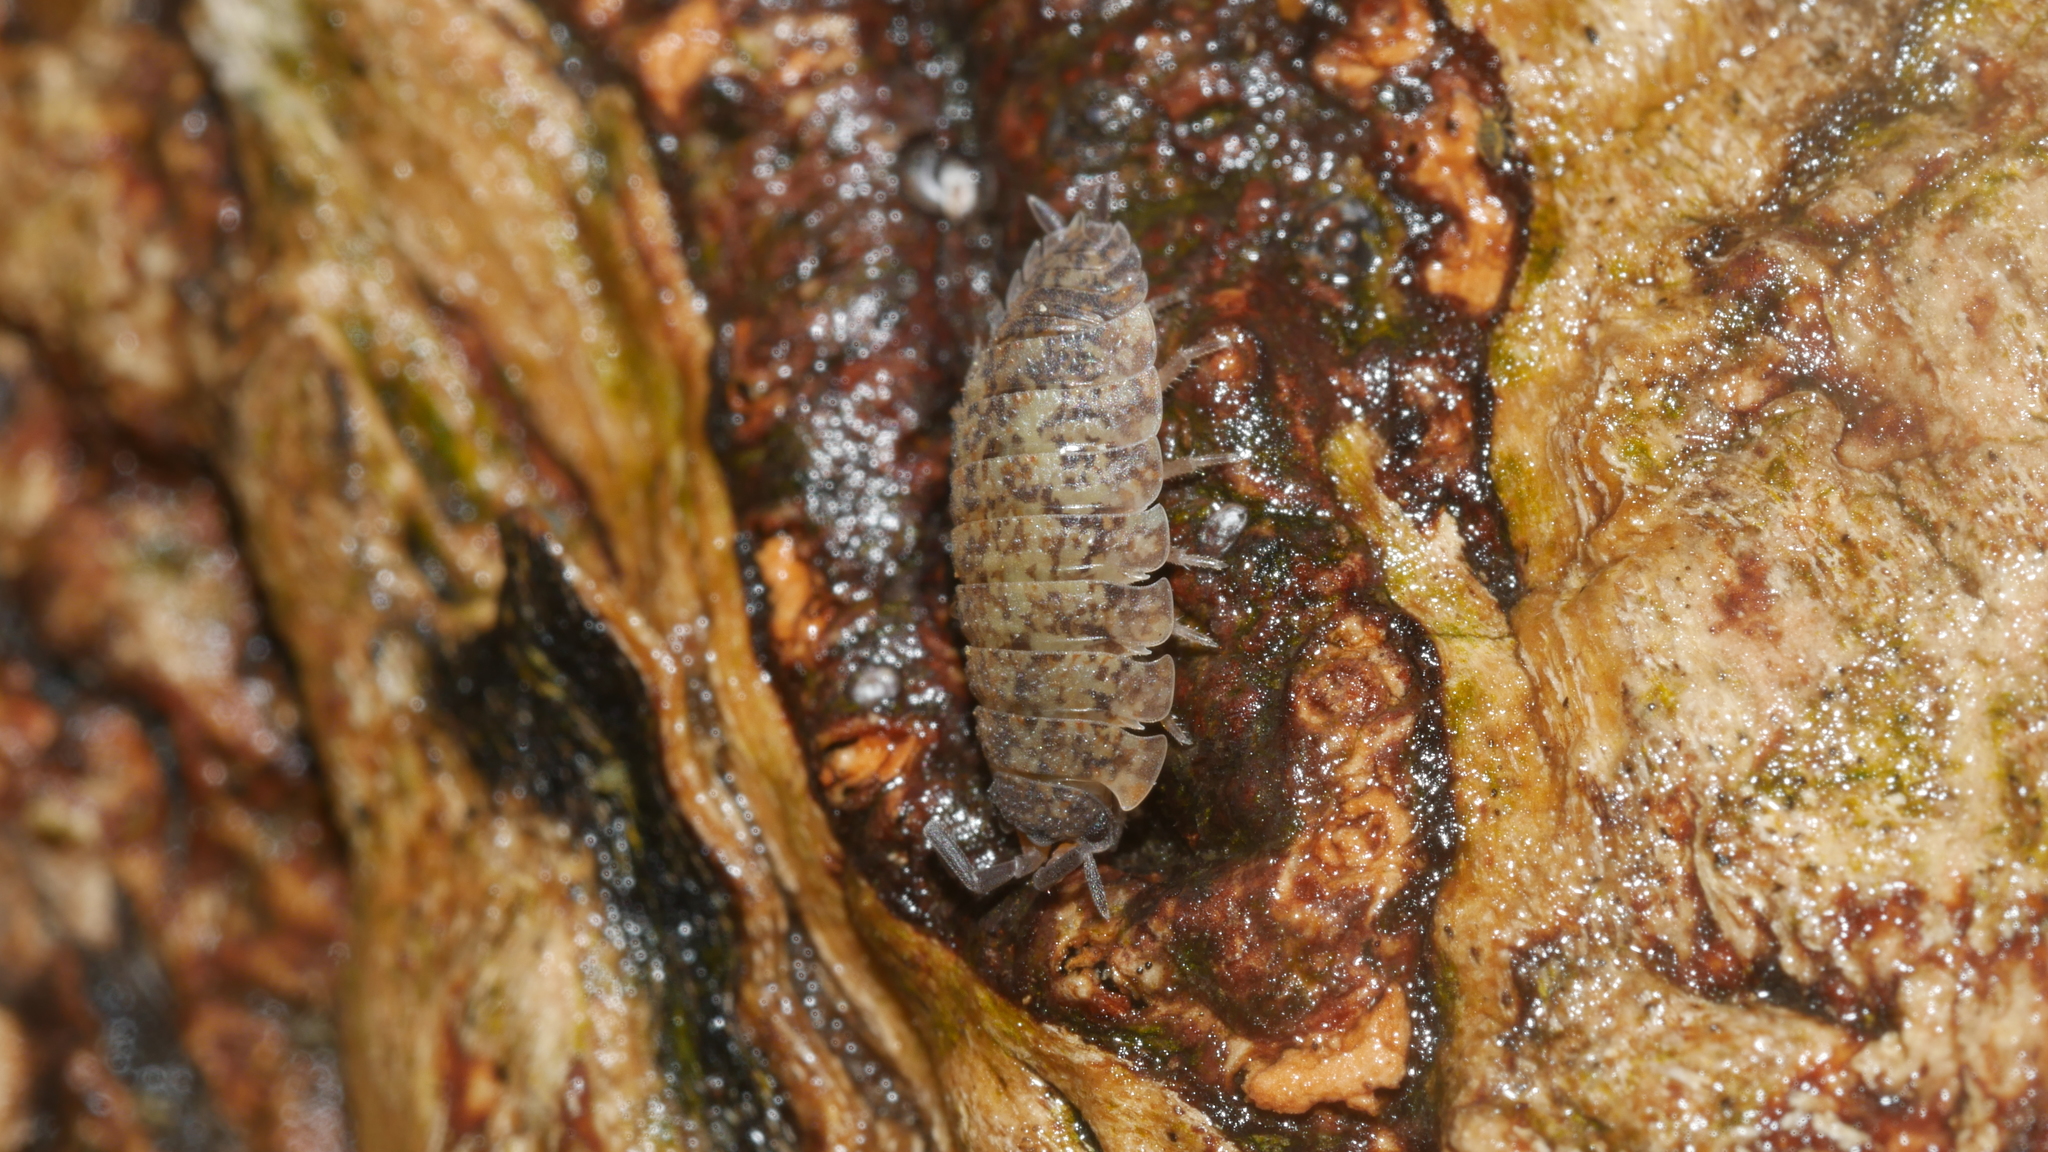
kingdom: Animalia
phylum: Arthropoda
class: Malacostraca
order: Isopoda
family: Porcellionidae
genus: Porcellio
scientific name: Porcellio scaber
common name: Common rough woodlouse
